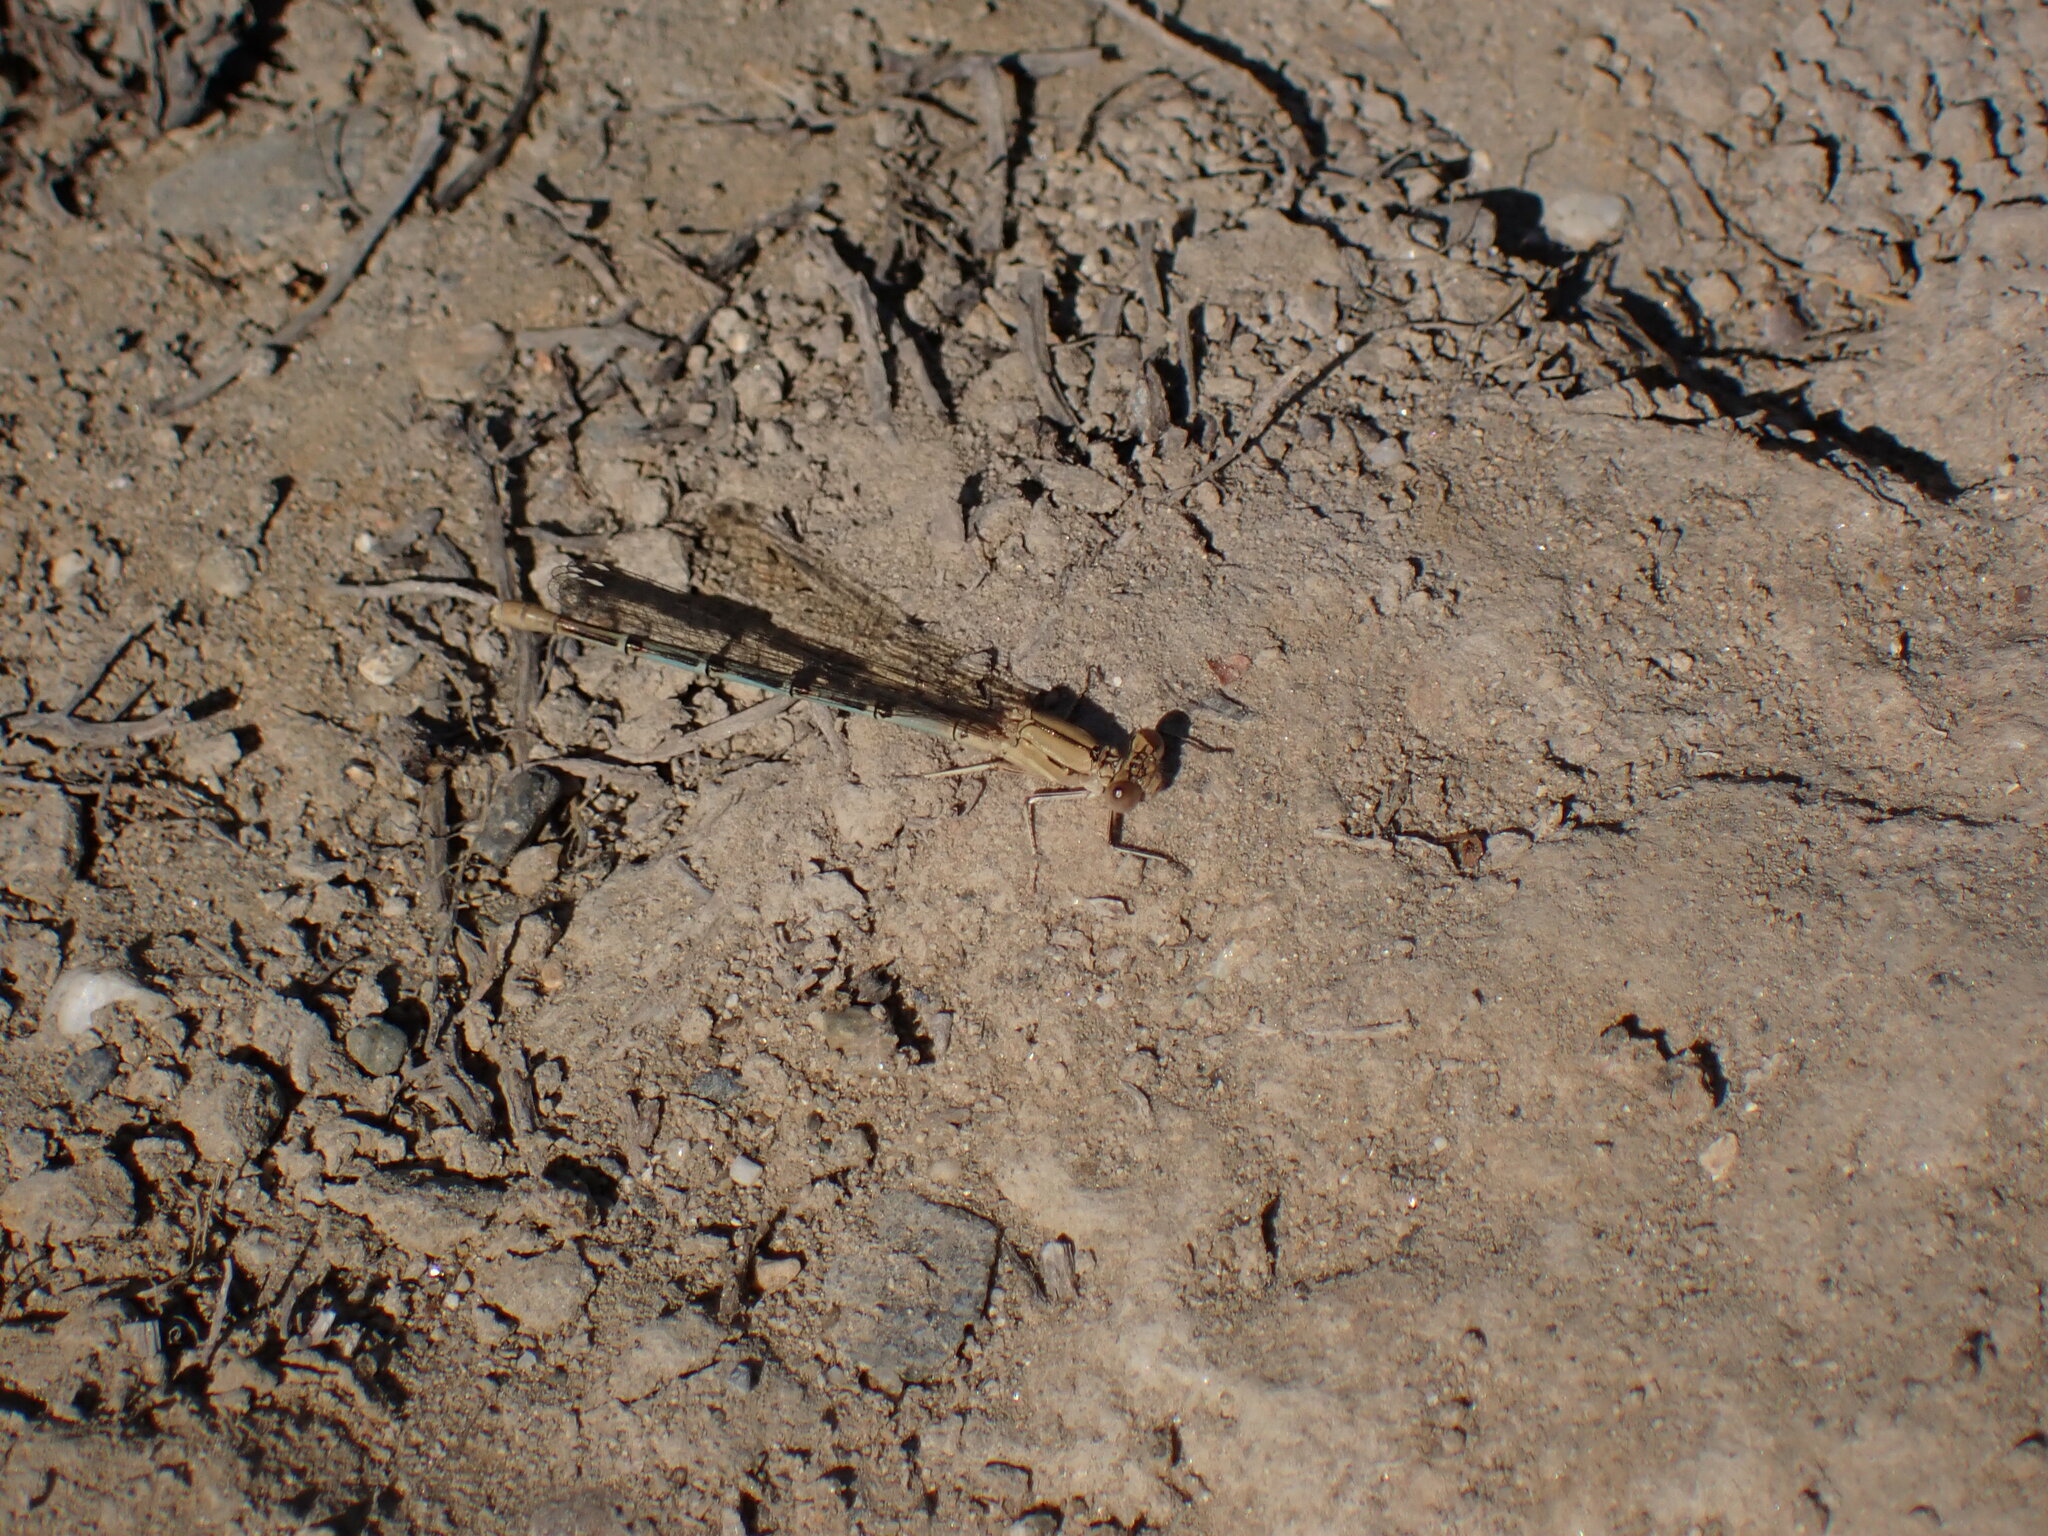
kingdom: Animalia
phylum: Arthropoda
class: Insecta
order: Odonata
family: Coenagrionidae
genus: Argia
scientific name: Argia emma
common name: Emma's dancer
